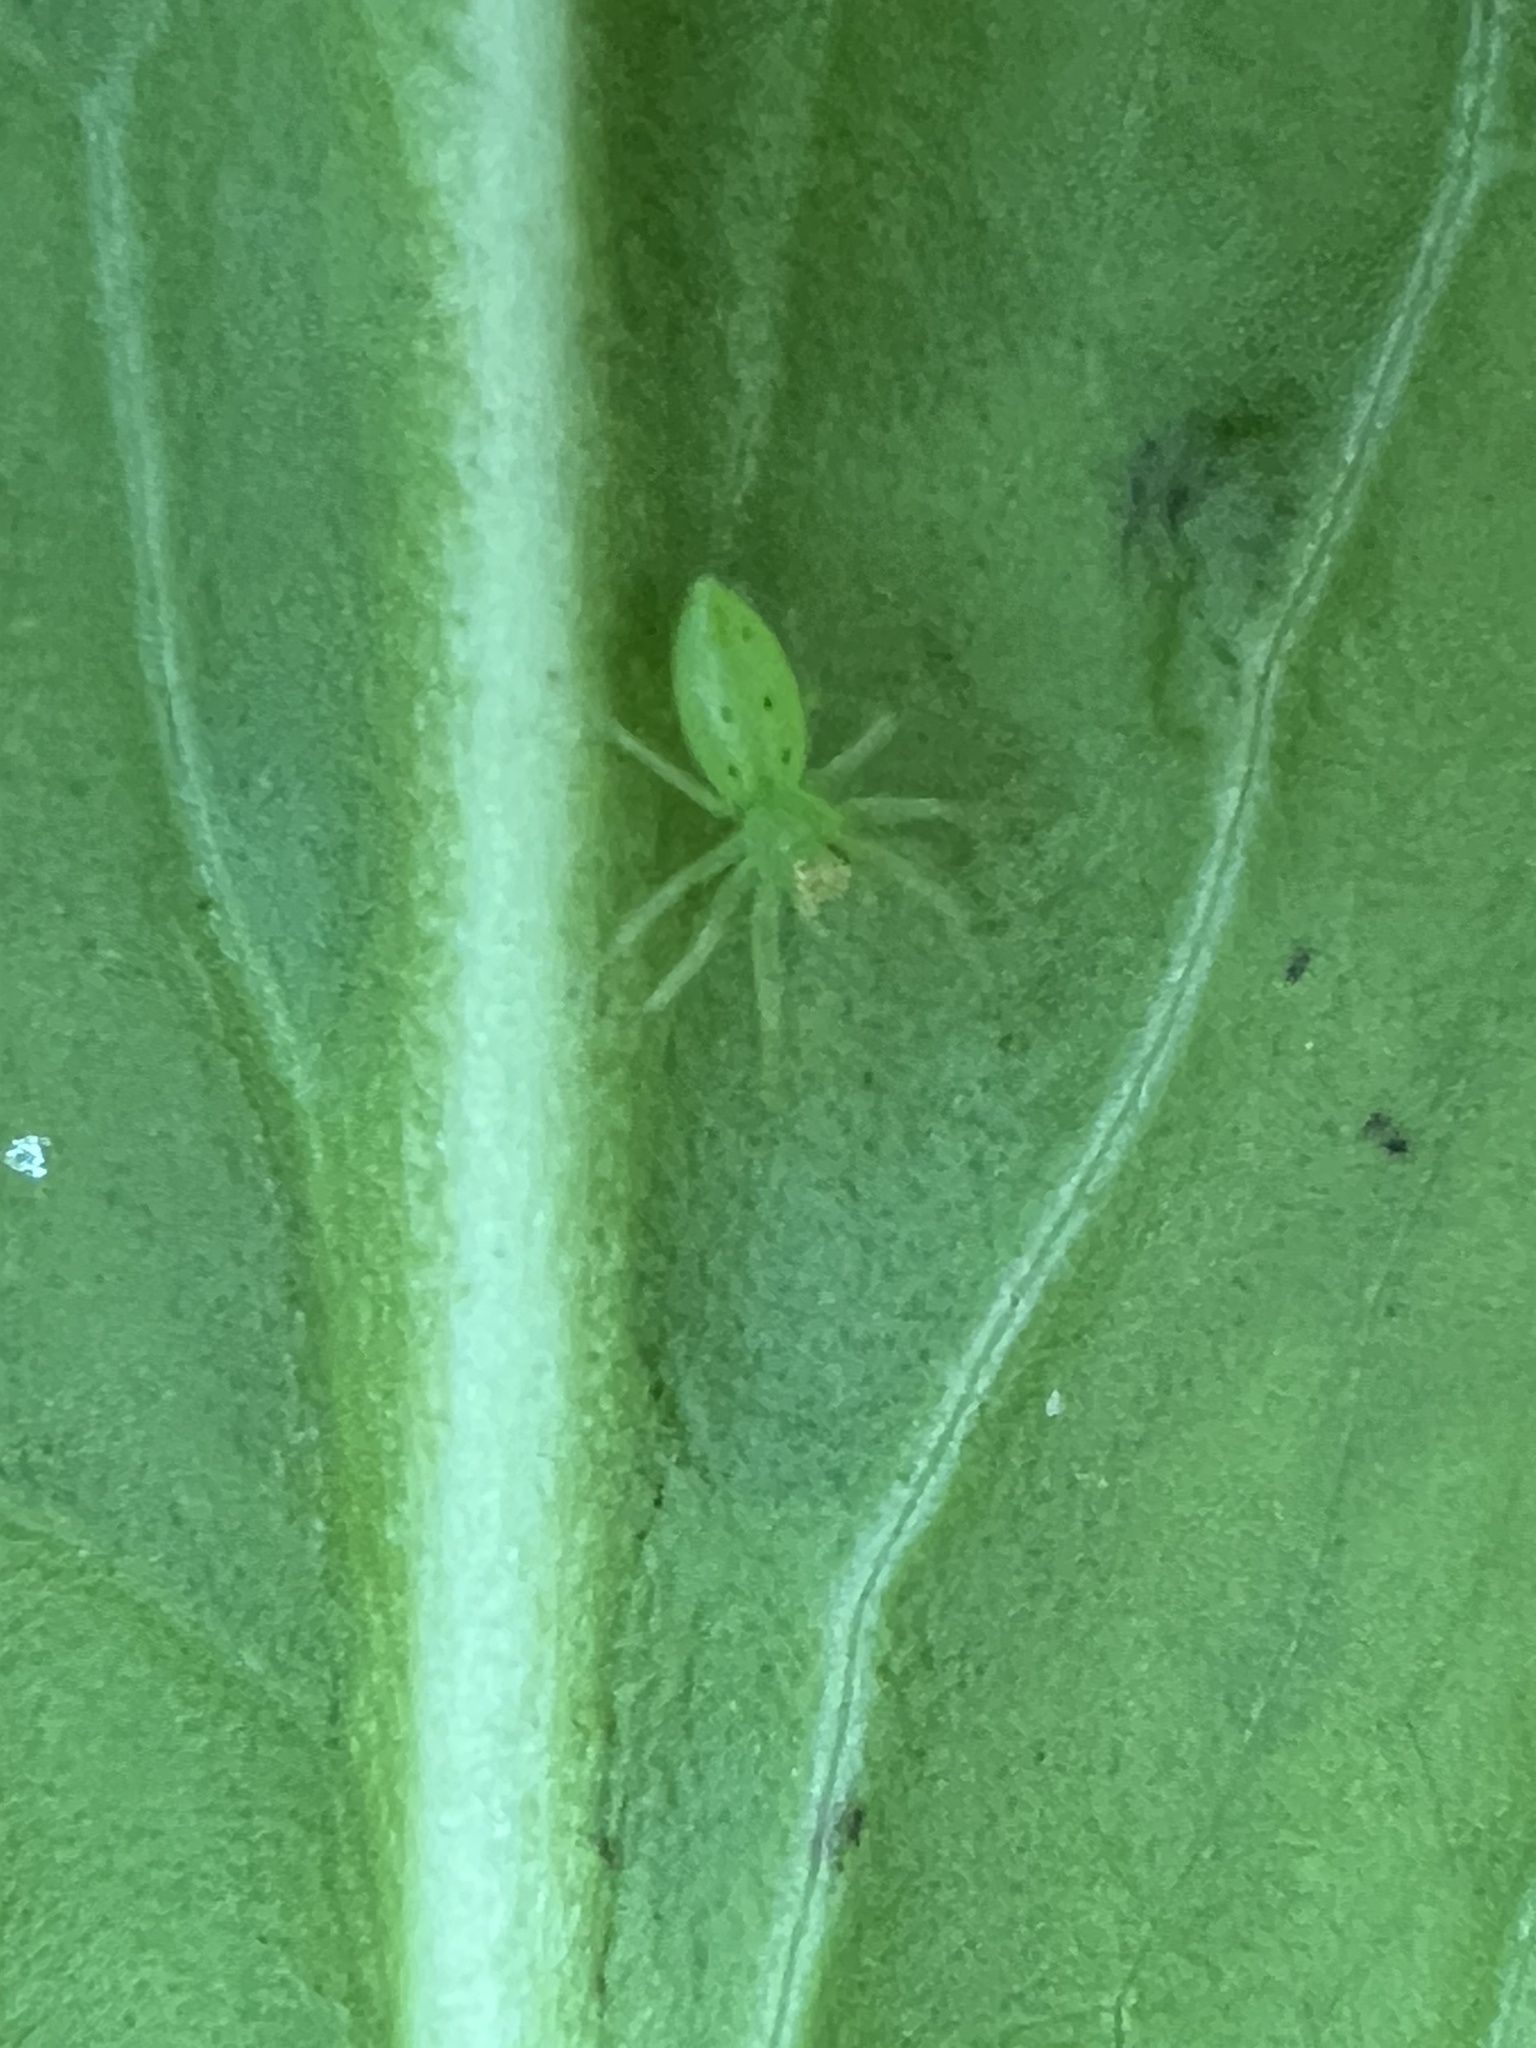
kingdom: Animalia
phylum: Arthropoda
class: Arachnida
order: Araneae
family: Salticidae
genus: Lyssomanes
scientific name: Lyssomanes viridis
